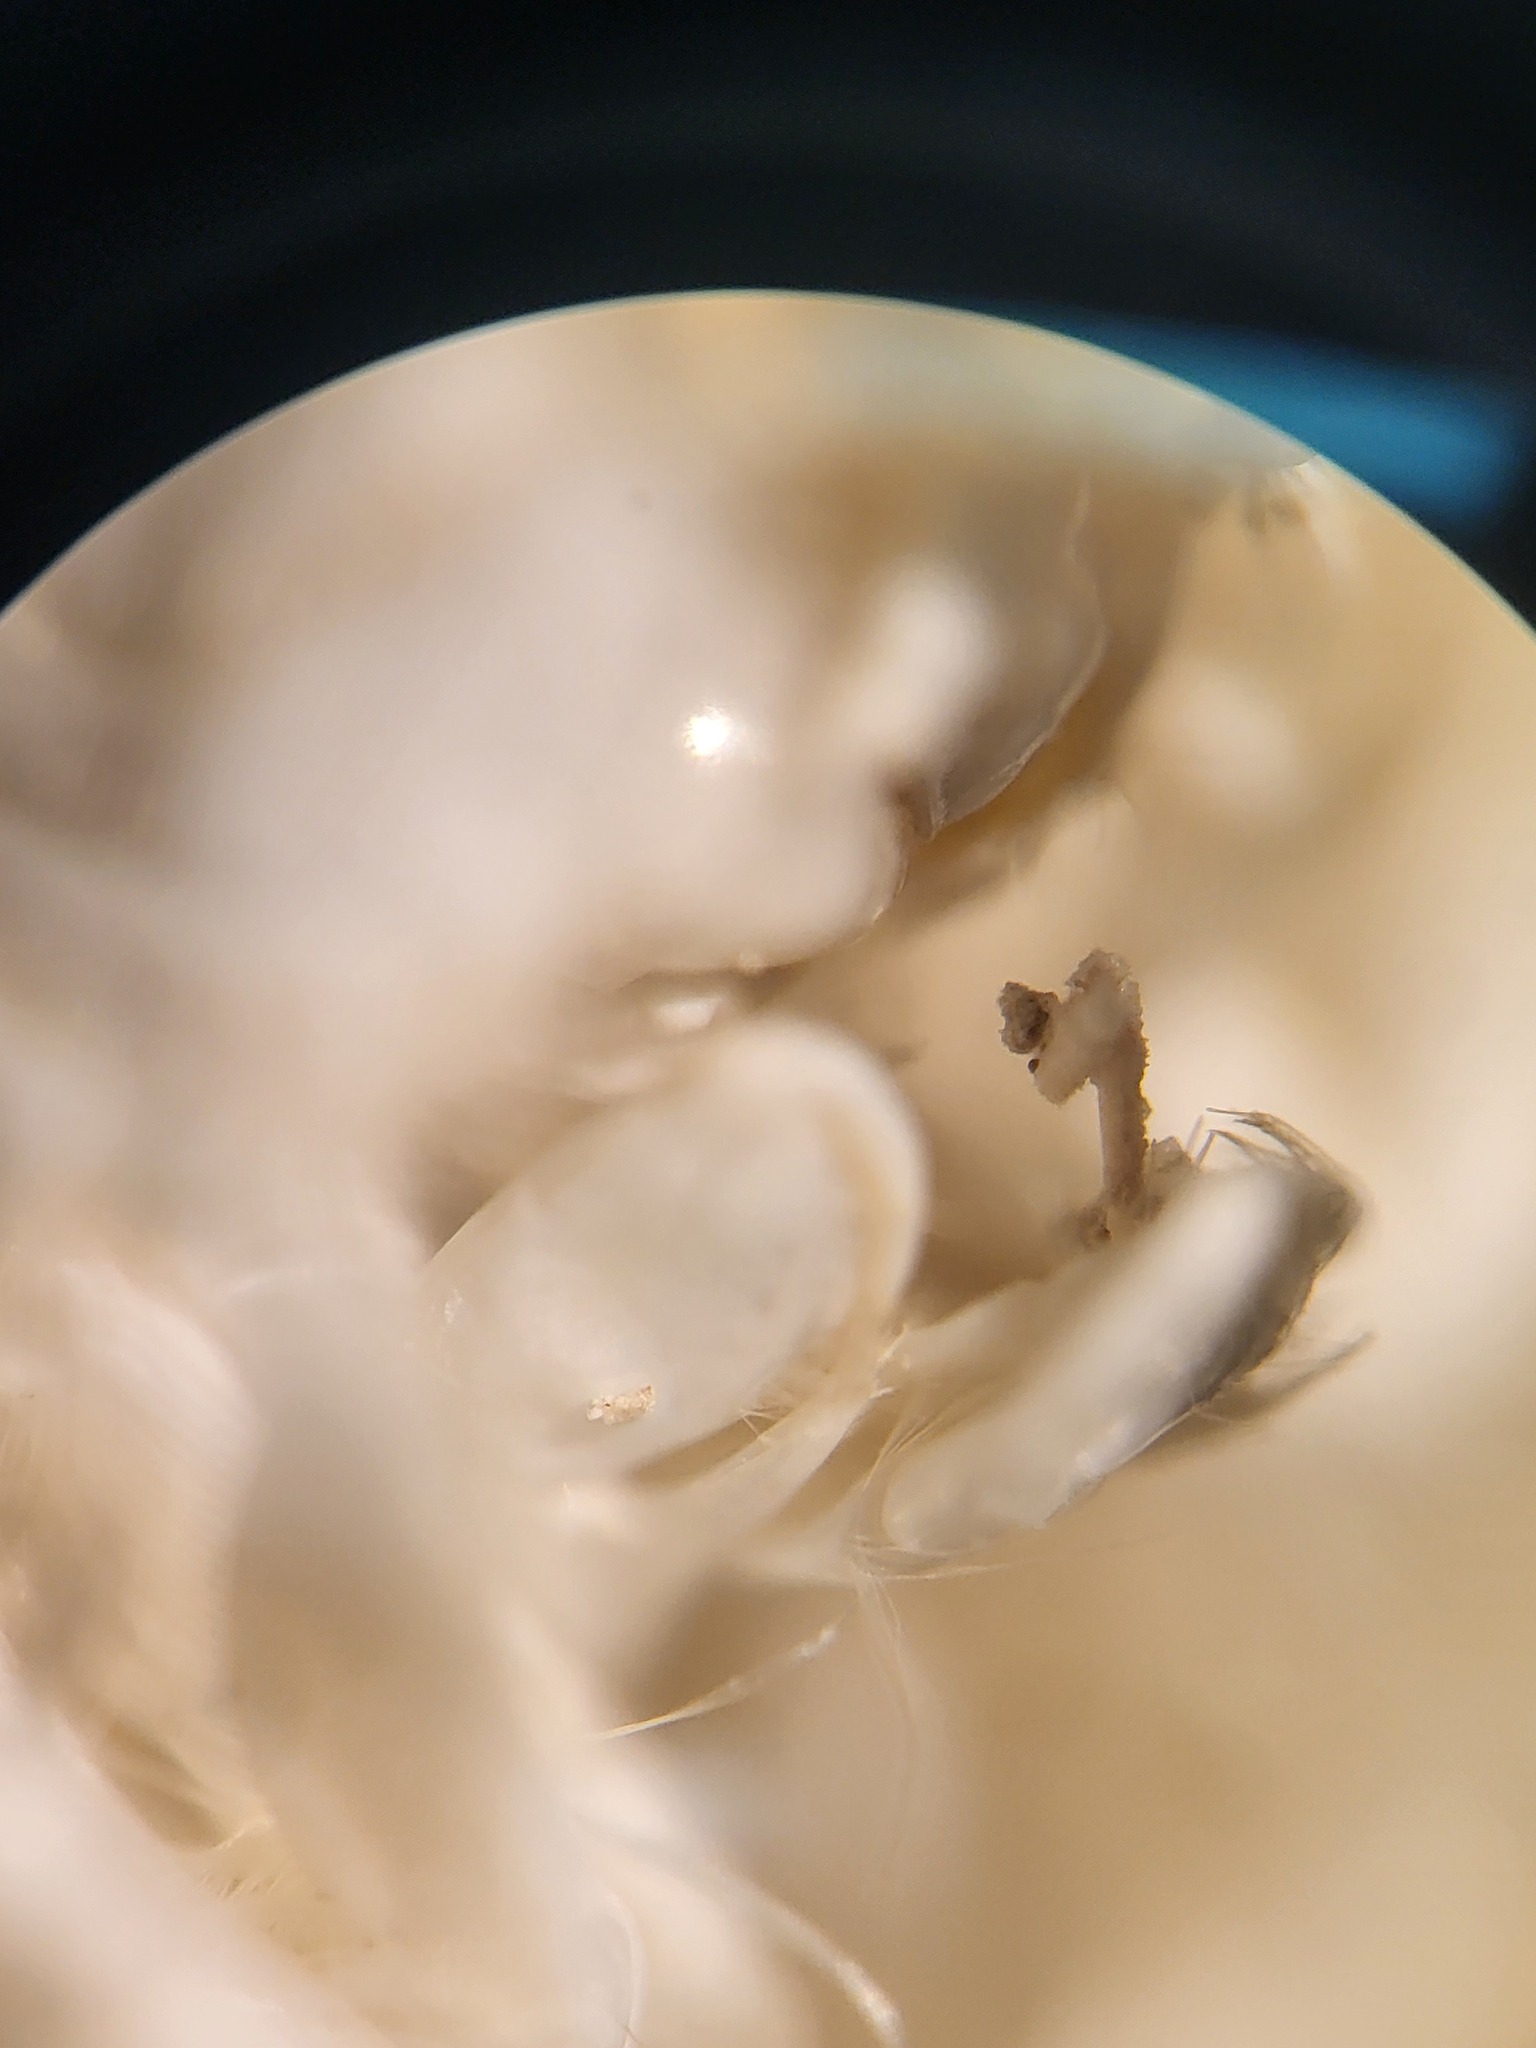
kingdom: Animalia
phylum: Arthropoda
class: Malacostraca
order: Amphipoda
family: Oedicerotidae
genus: Arrhis
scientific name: Arrhis phyllonyx
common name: Sea piglet
